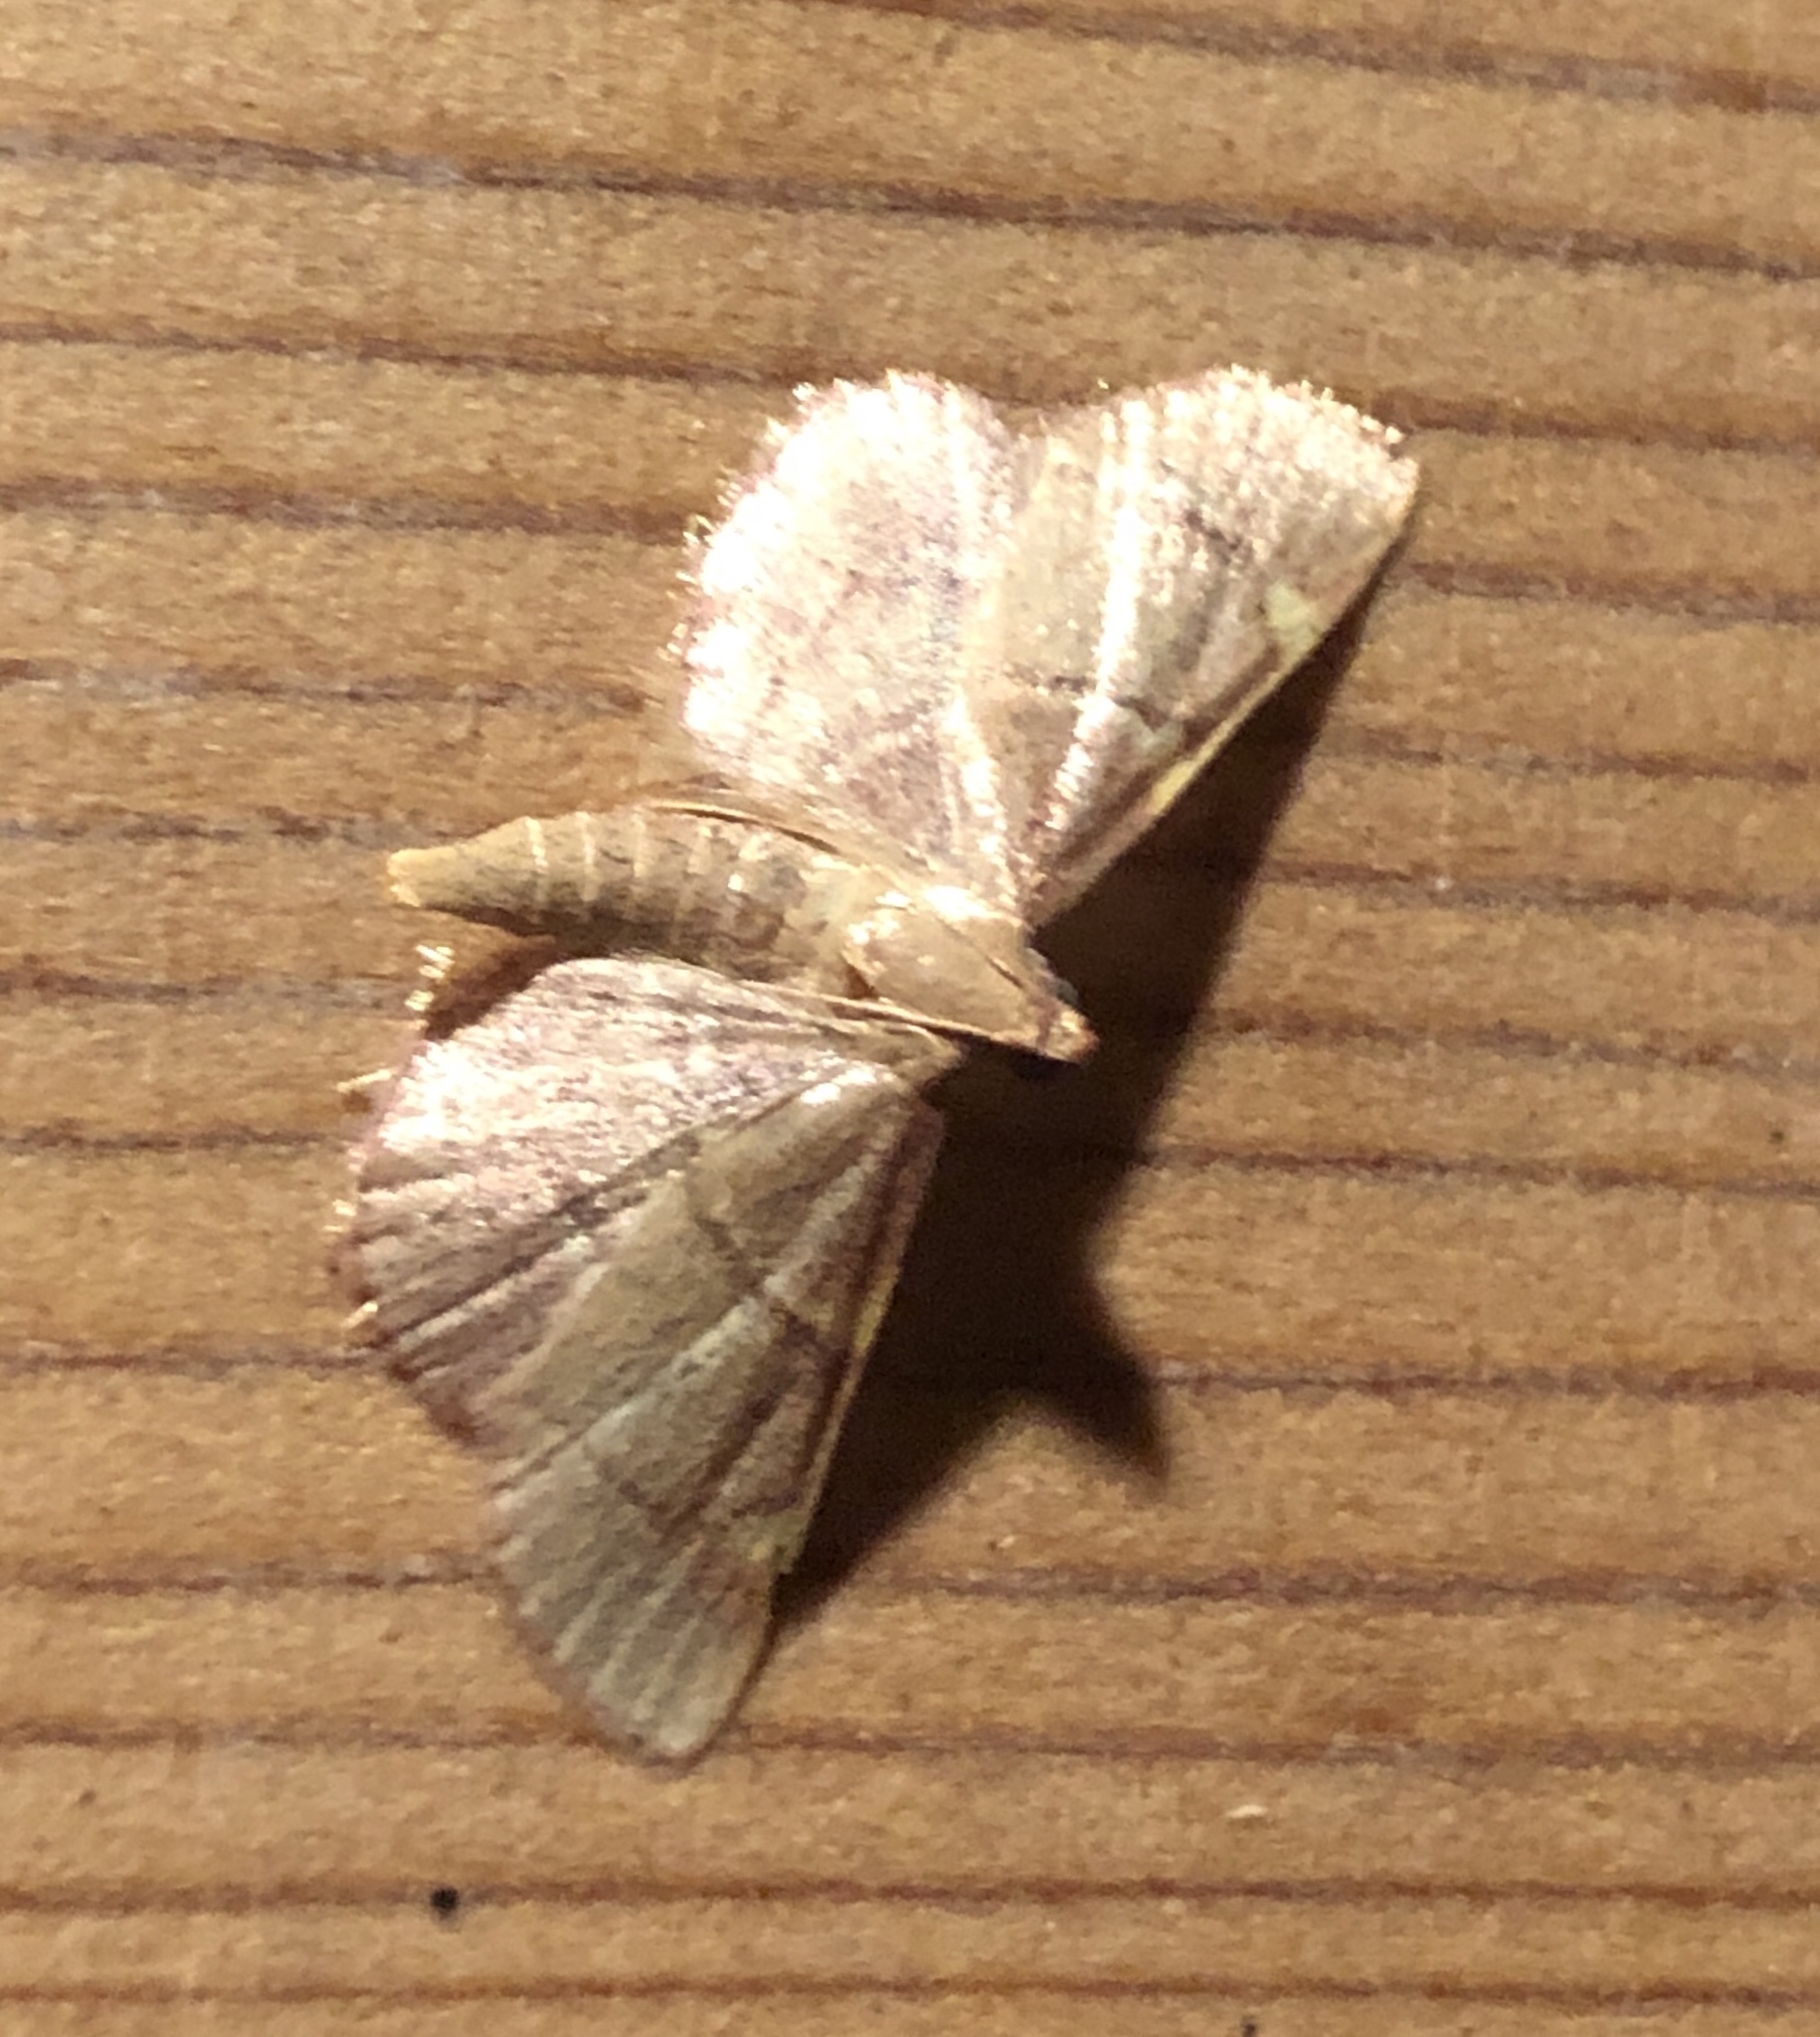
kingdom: Animalia
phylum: Arthropoda
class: Insecta
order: Lepidoptera
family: Pyralidae
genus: Hypsopygia
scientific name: Hypsopygia
